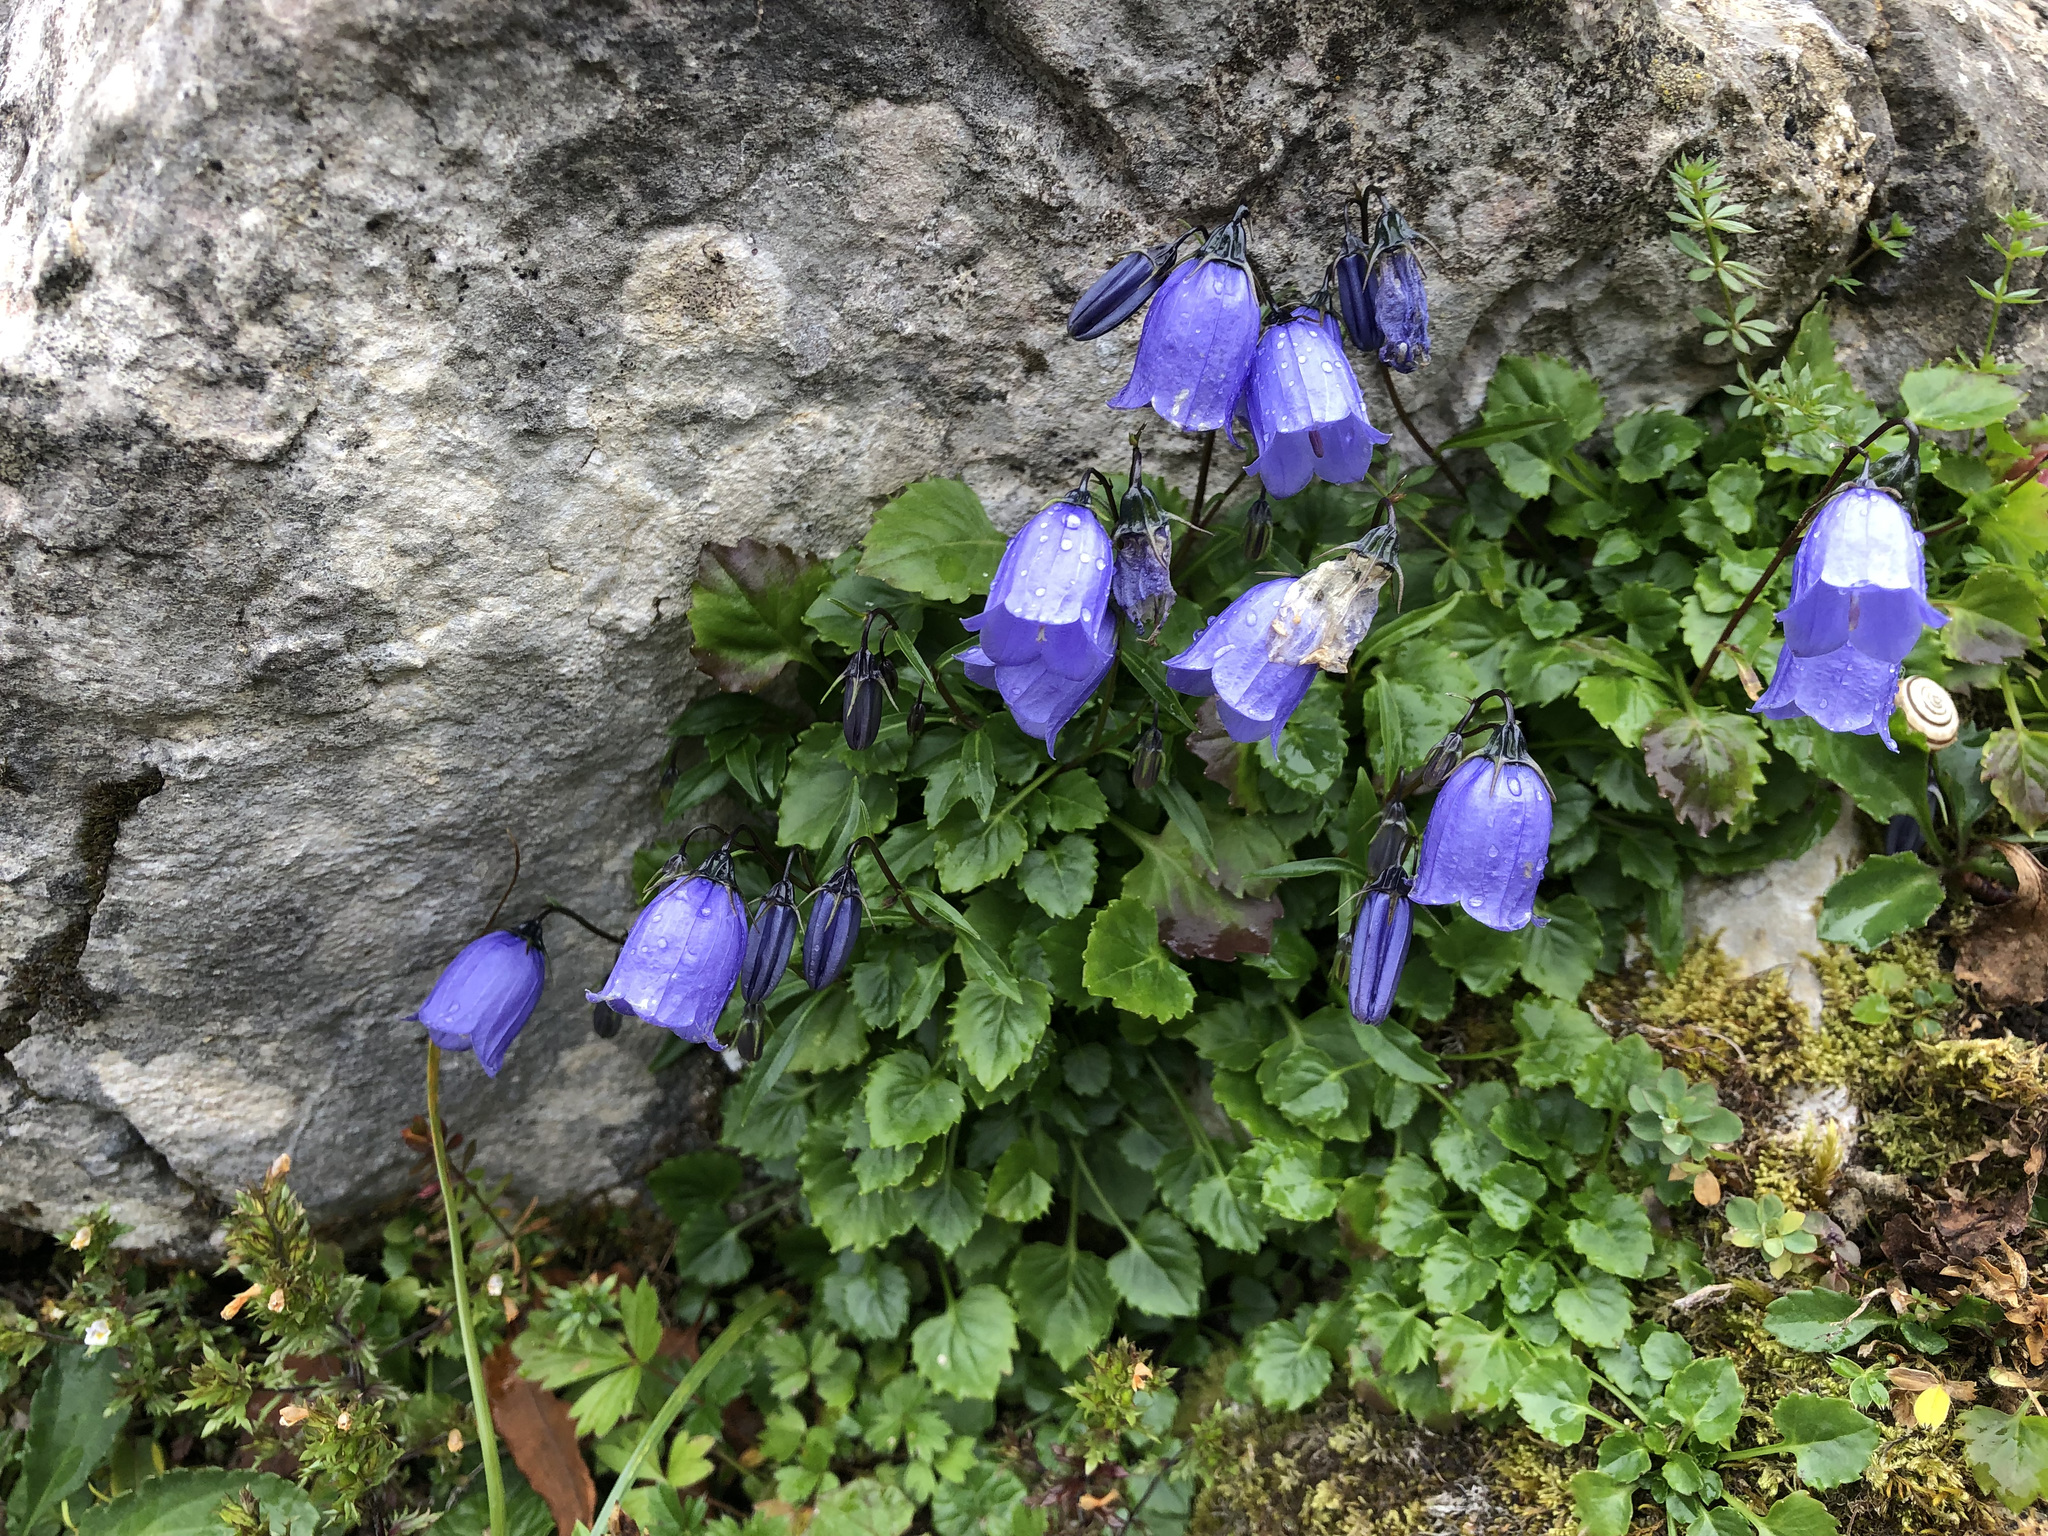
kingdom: Plantae
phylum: Tracheophyta
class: Magnoliopsida
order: Asterales
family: Campanulaceae
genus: Campanula
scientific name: Campanula cochleariifolia
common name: Fairies'-thimbles
